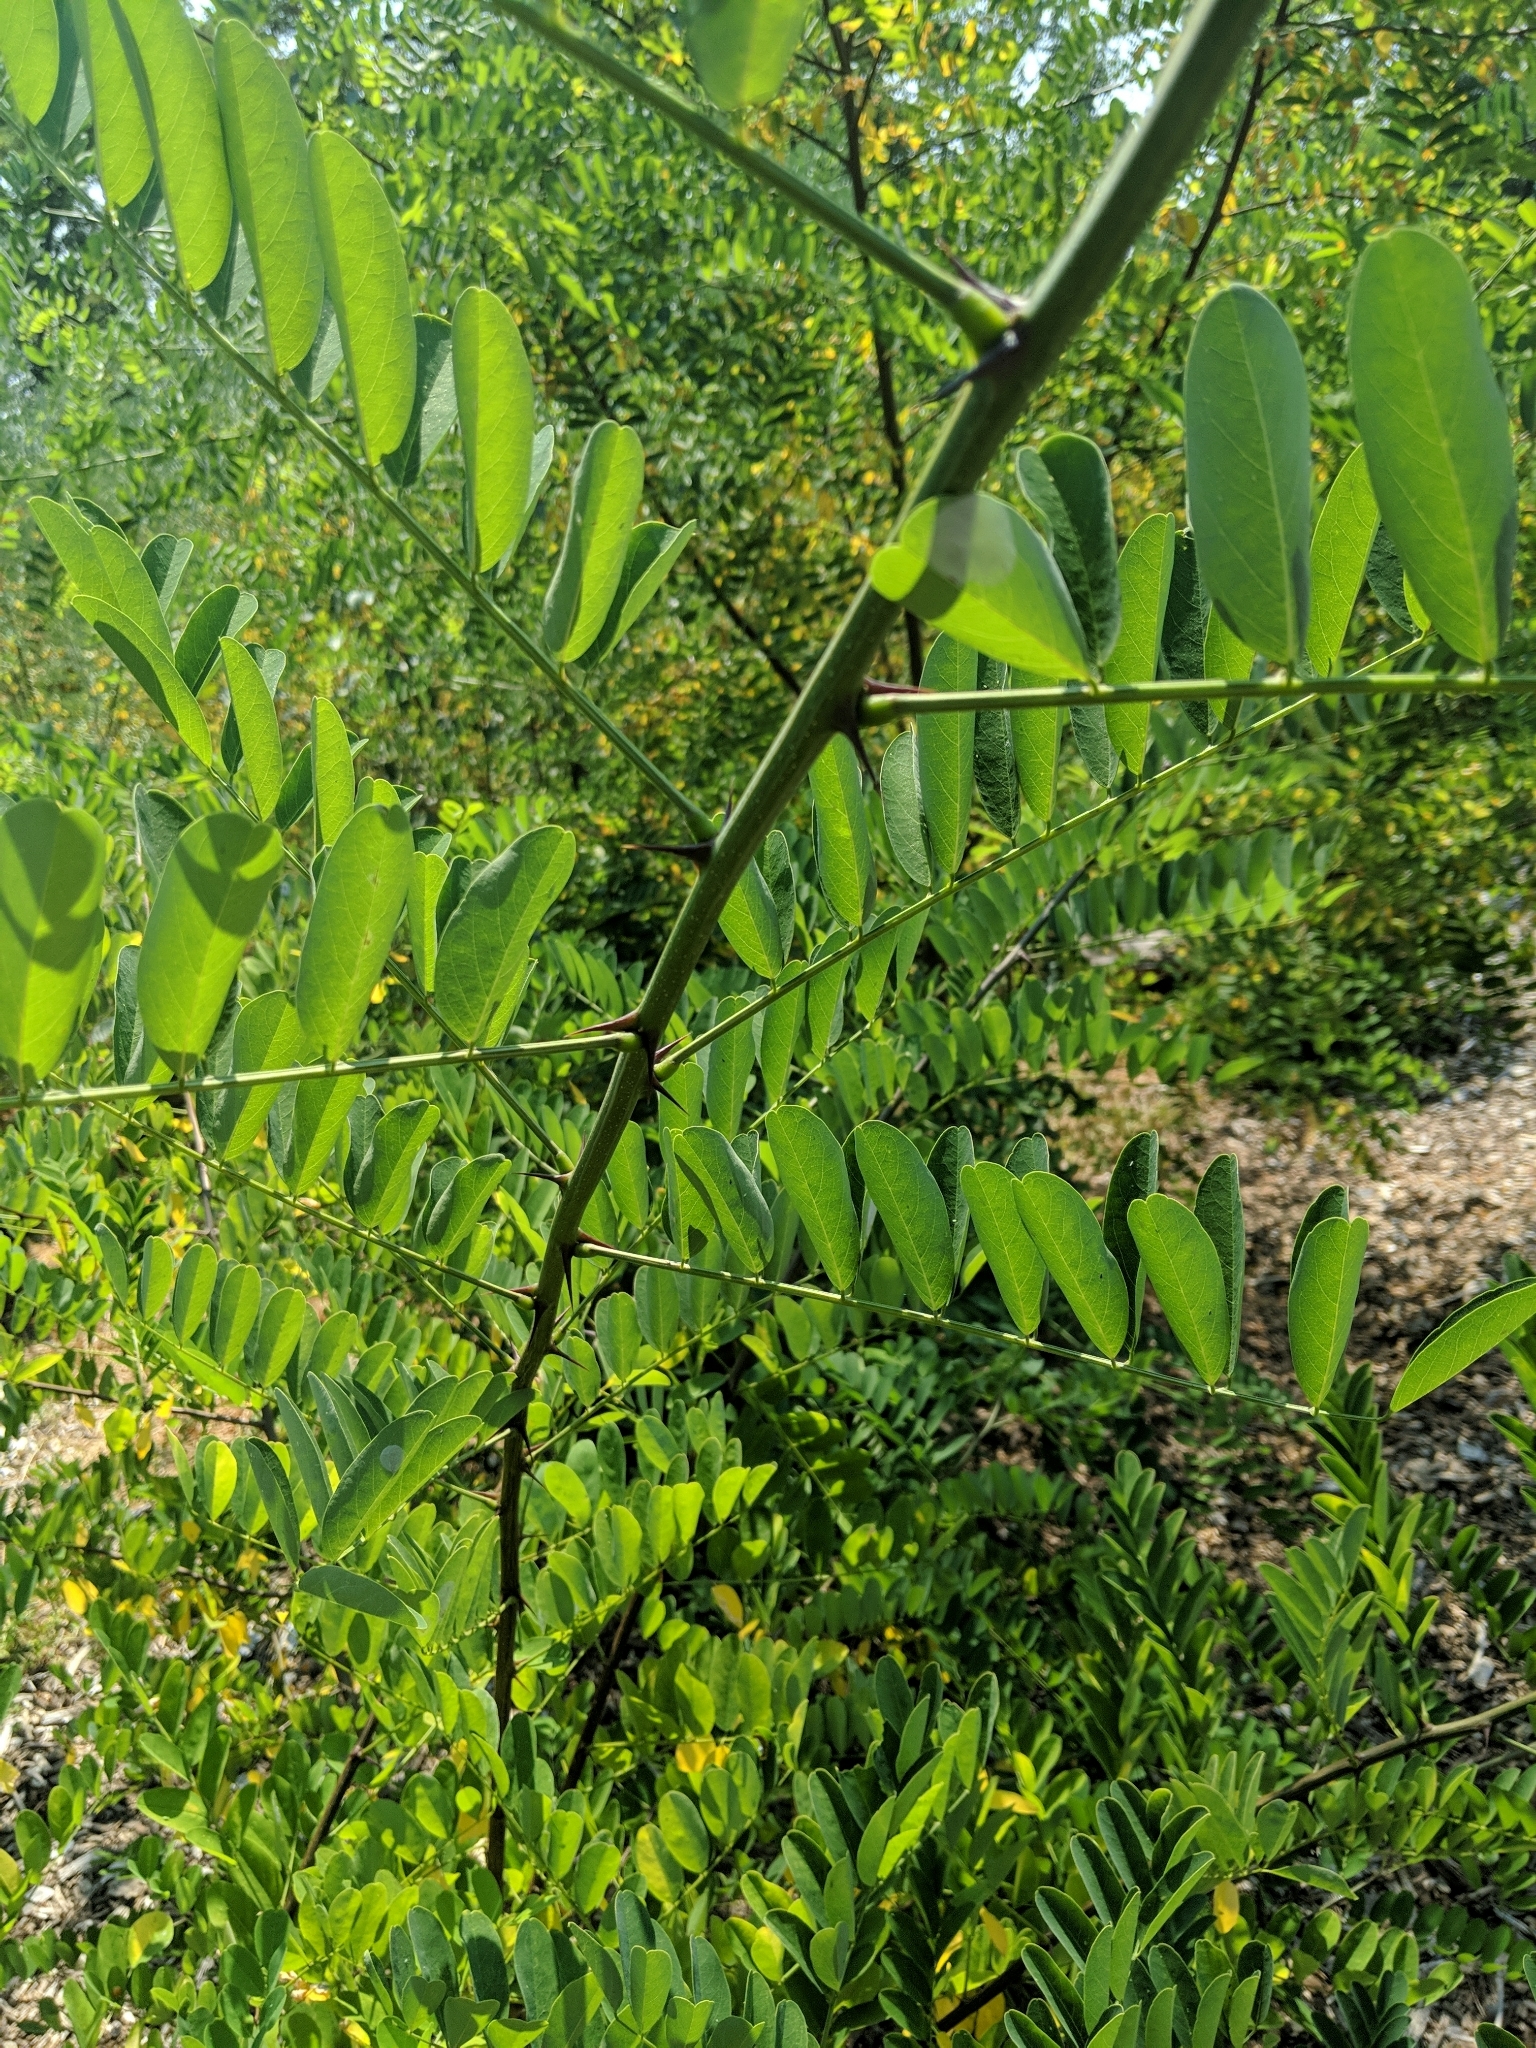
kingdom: Plantae
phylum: Tracheophyta
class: Magnoliopsida
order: Fabales
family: Fabaceae
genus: Robinia
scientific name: Robinia pseudoacacia
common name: Black locust
